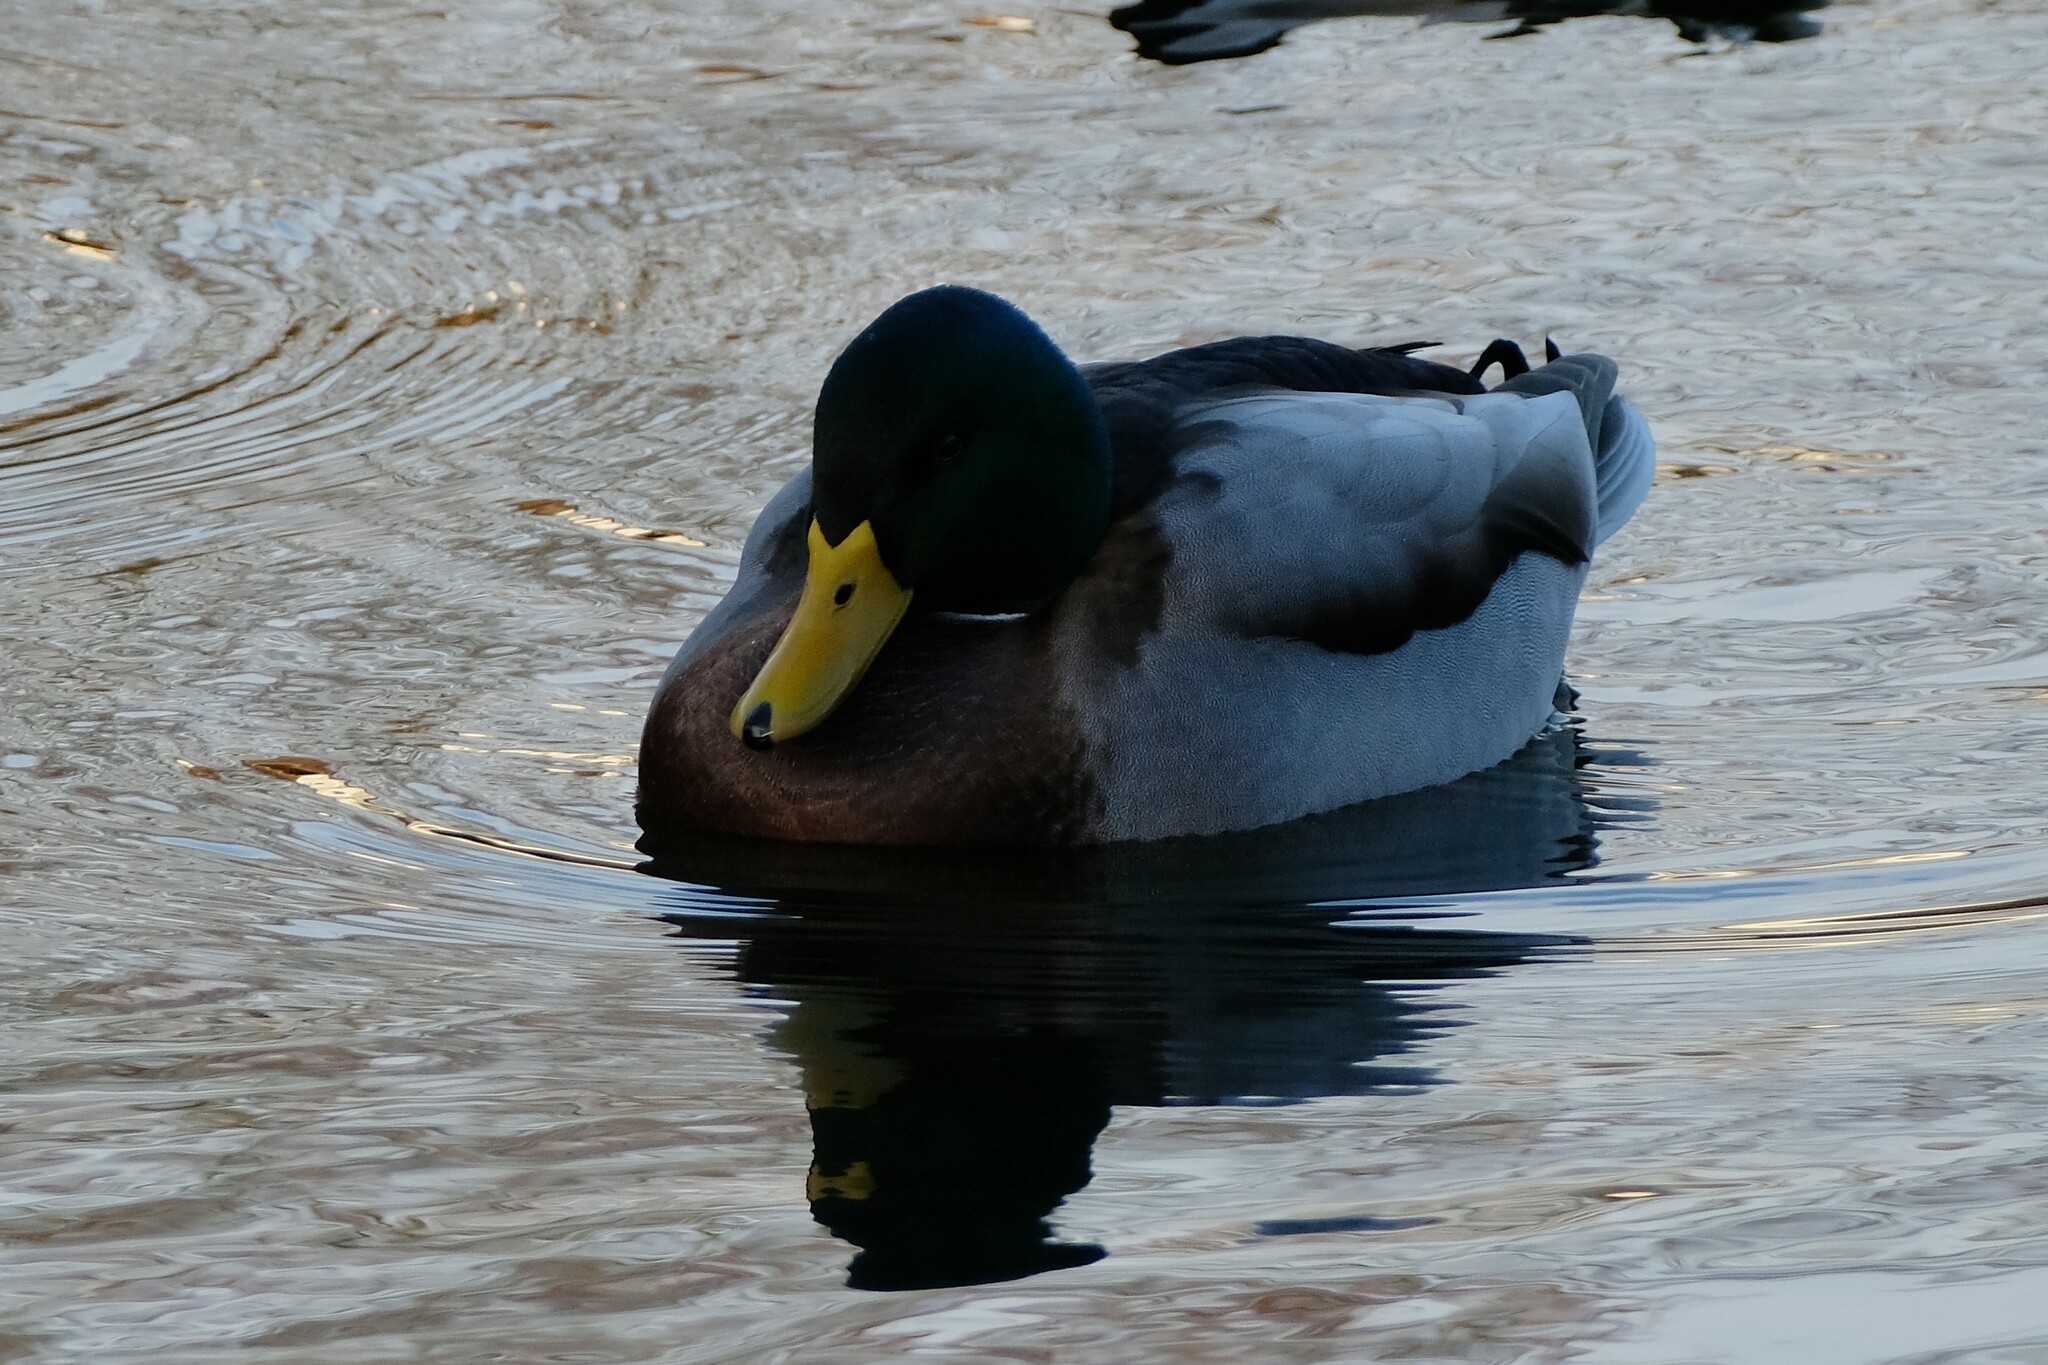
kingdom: Animalia
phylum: Chordata
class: Aves
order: Anseriformes
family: Anatidae
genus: Anas
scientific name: Anas platyrhynchos
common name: Mallard
